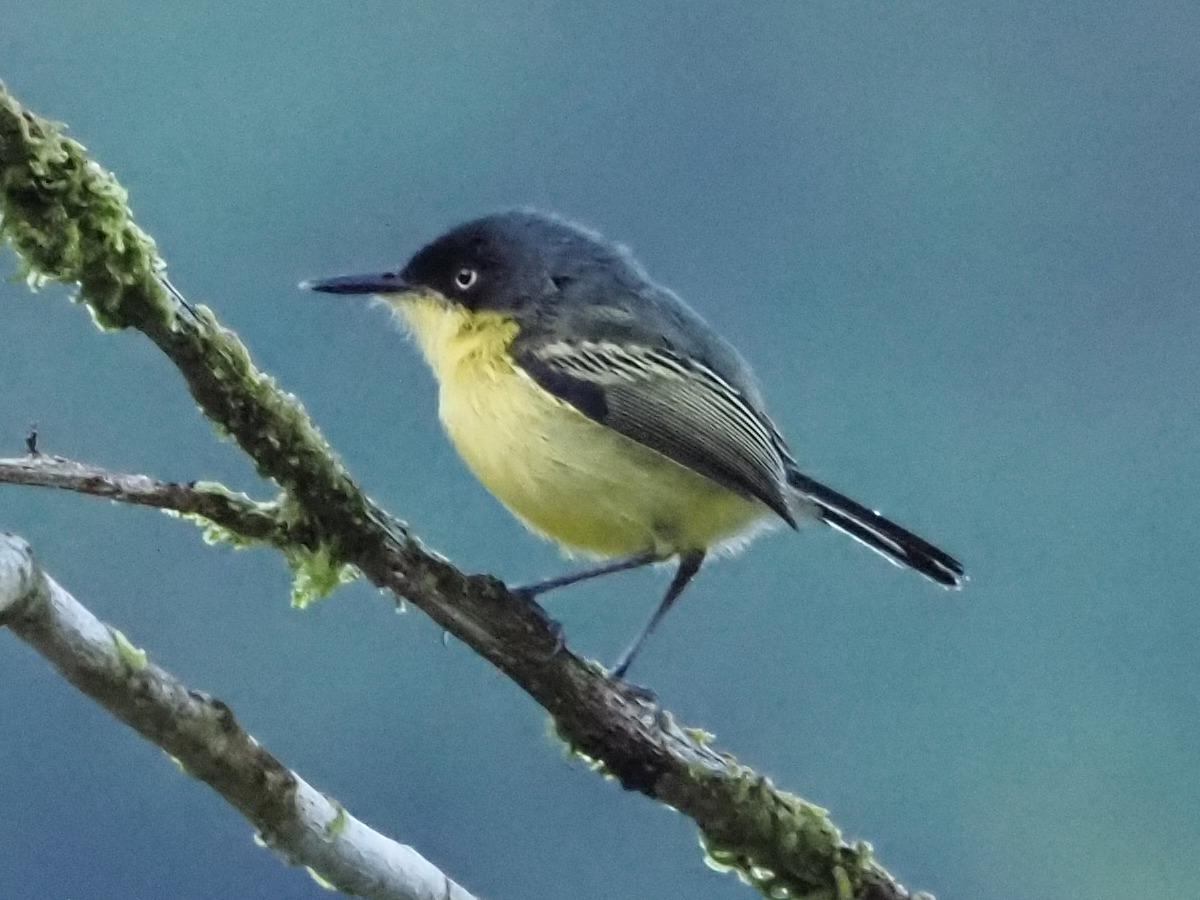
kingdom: Animalia
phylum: Chordata
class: Aves
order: Passeriformes
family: Tyrannidae
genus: Todirostrum
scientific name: Todirostrum cinereum
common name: Common tody-flycatcher
